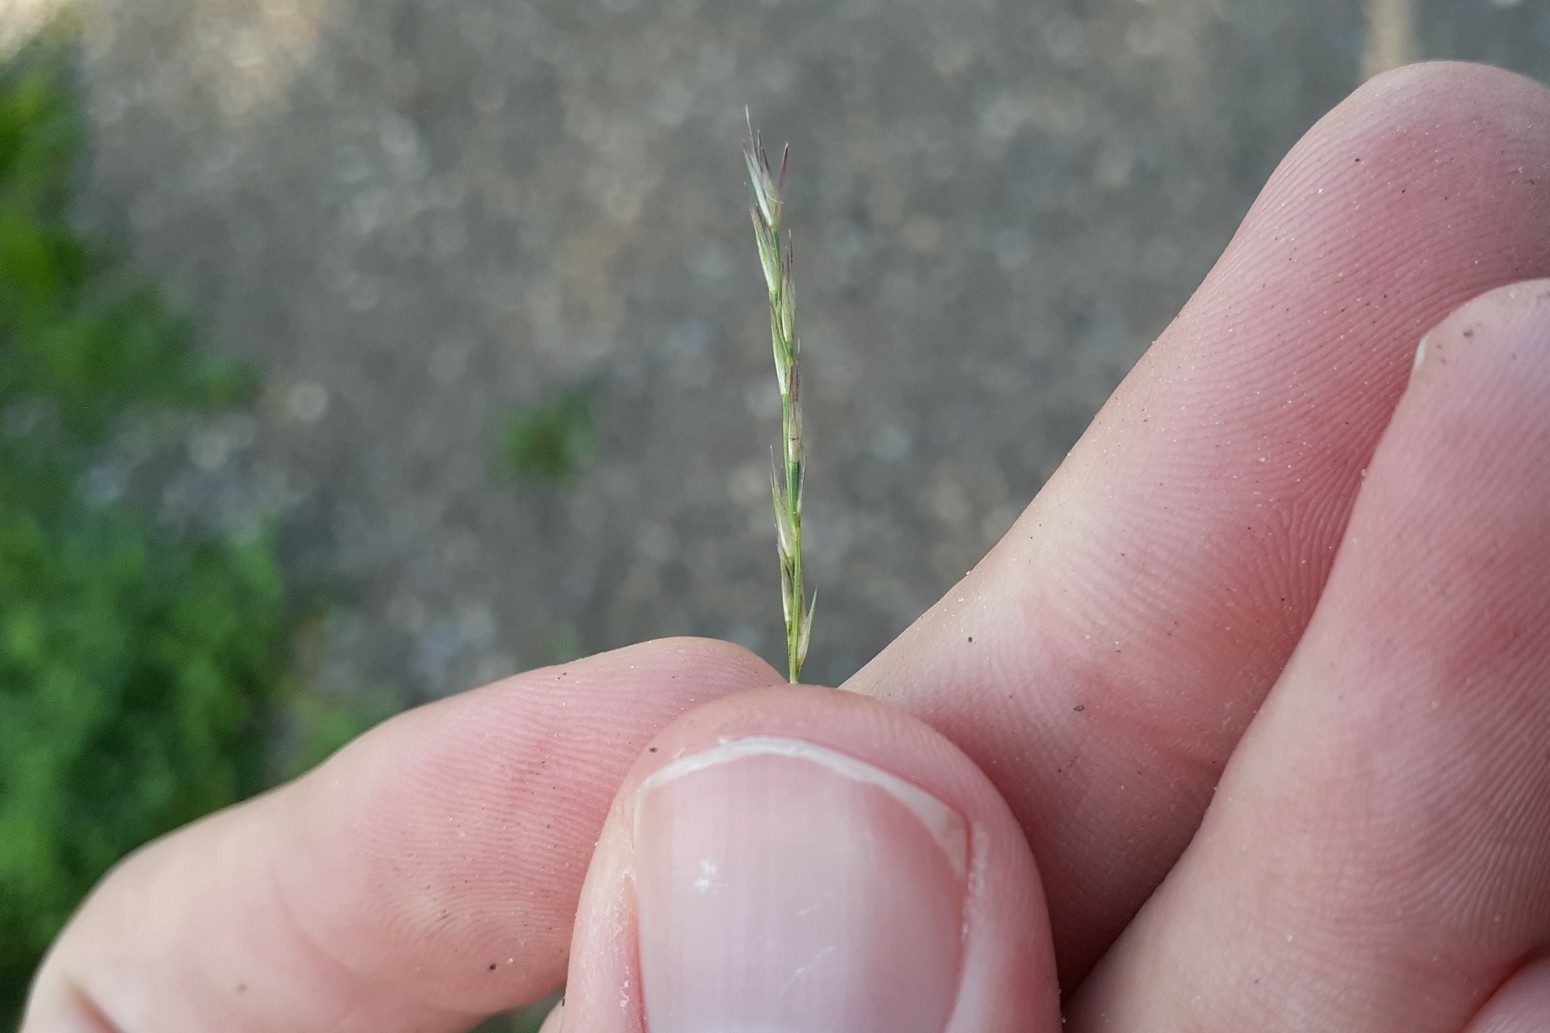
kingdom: Plantae
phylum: Tracheophyta
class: Liliopsida
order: Poales
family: Poaceae
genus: Sporobolus
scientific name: Sporobolus vaginiflorus
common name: Poverty dropseed
